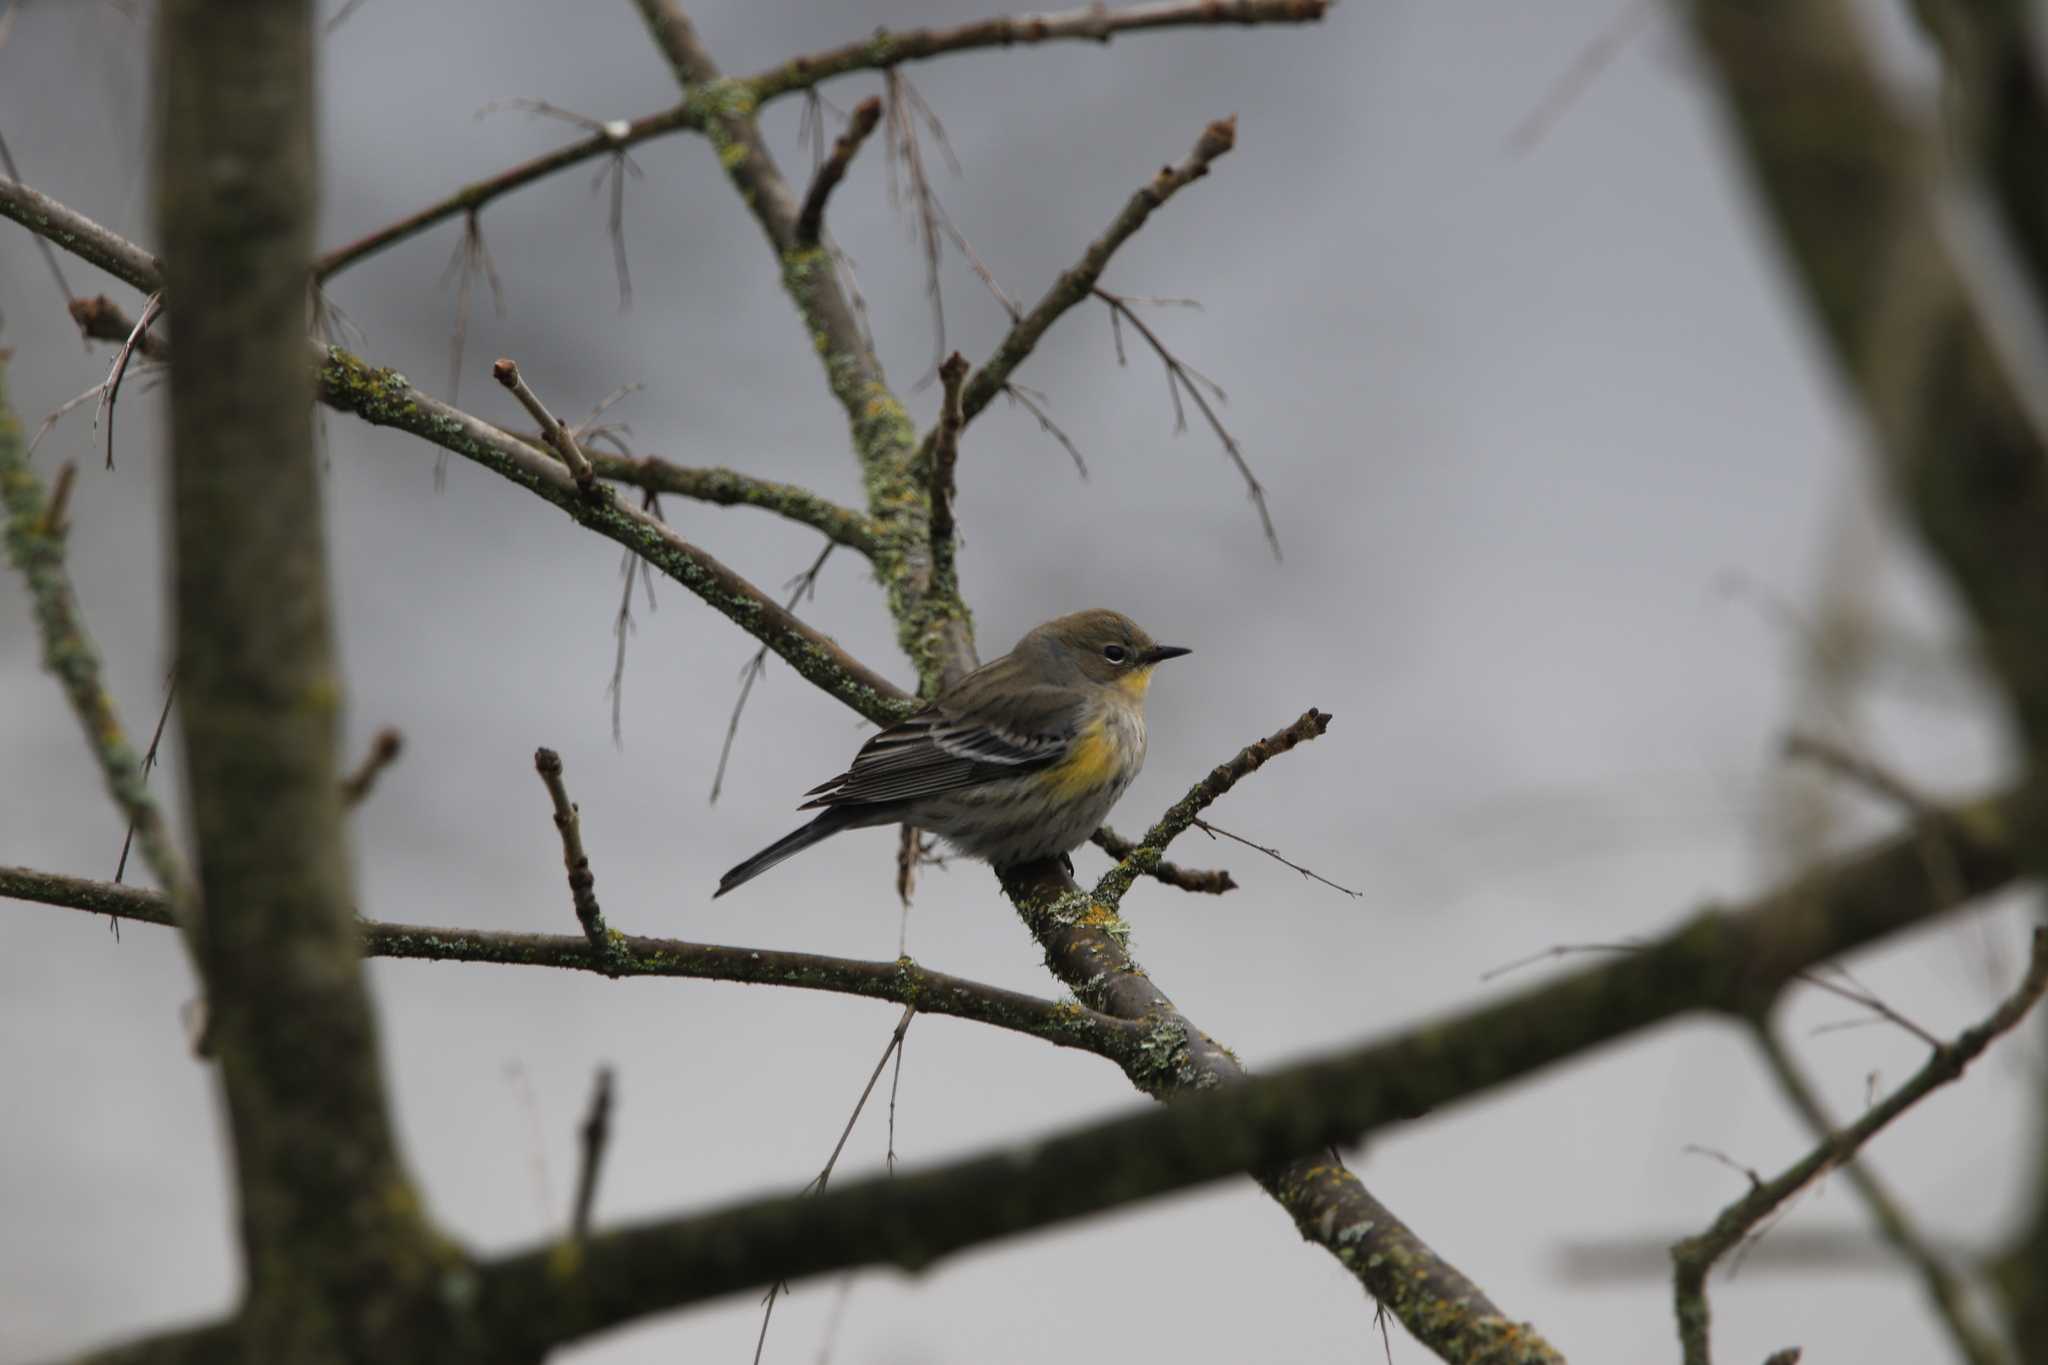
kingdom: Animalia
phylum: Chordata
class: Aves
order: Passeriformes
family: Parulidae
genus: Setophaga
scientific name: Setophaga coronata
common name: Myrtle warbler
